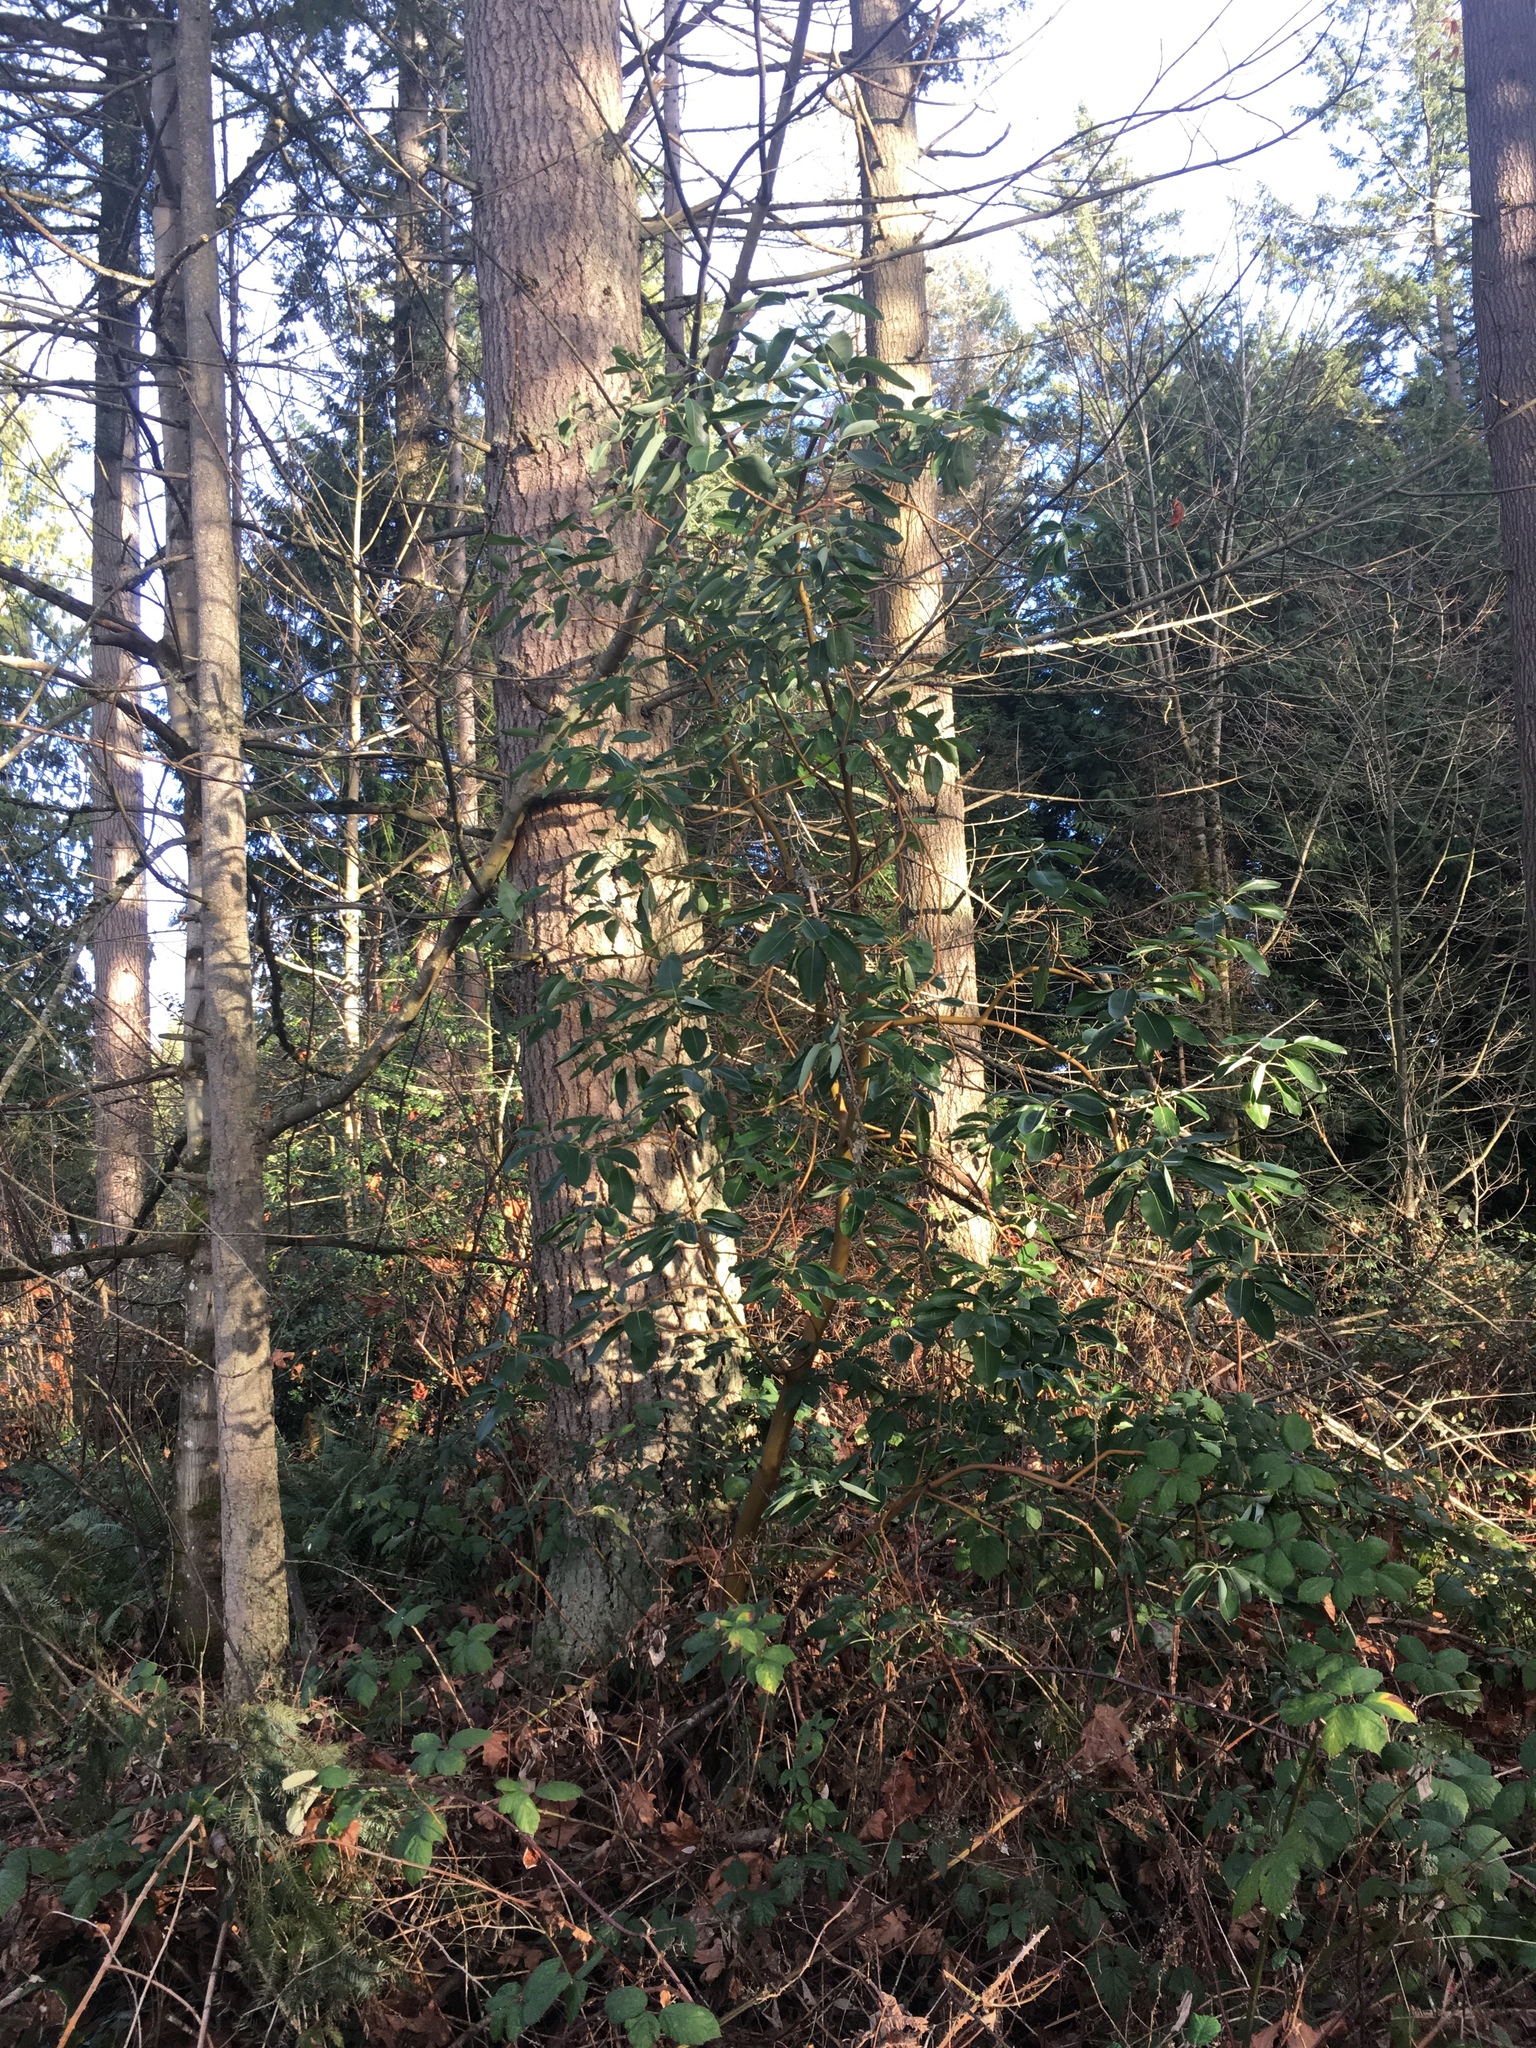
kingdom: Plantae
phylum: Tracheophyta
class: Magnoliopsida
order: Ericales
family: Ericaceae
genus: Arbutus
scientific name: Arbutus menziesii
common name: Pacific madrone
